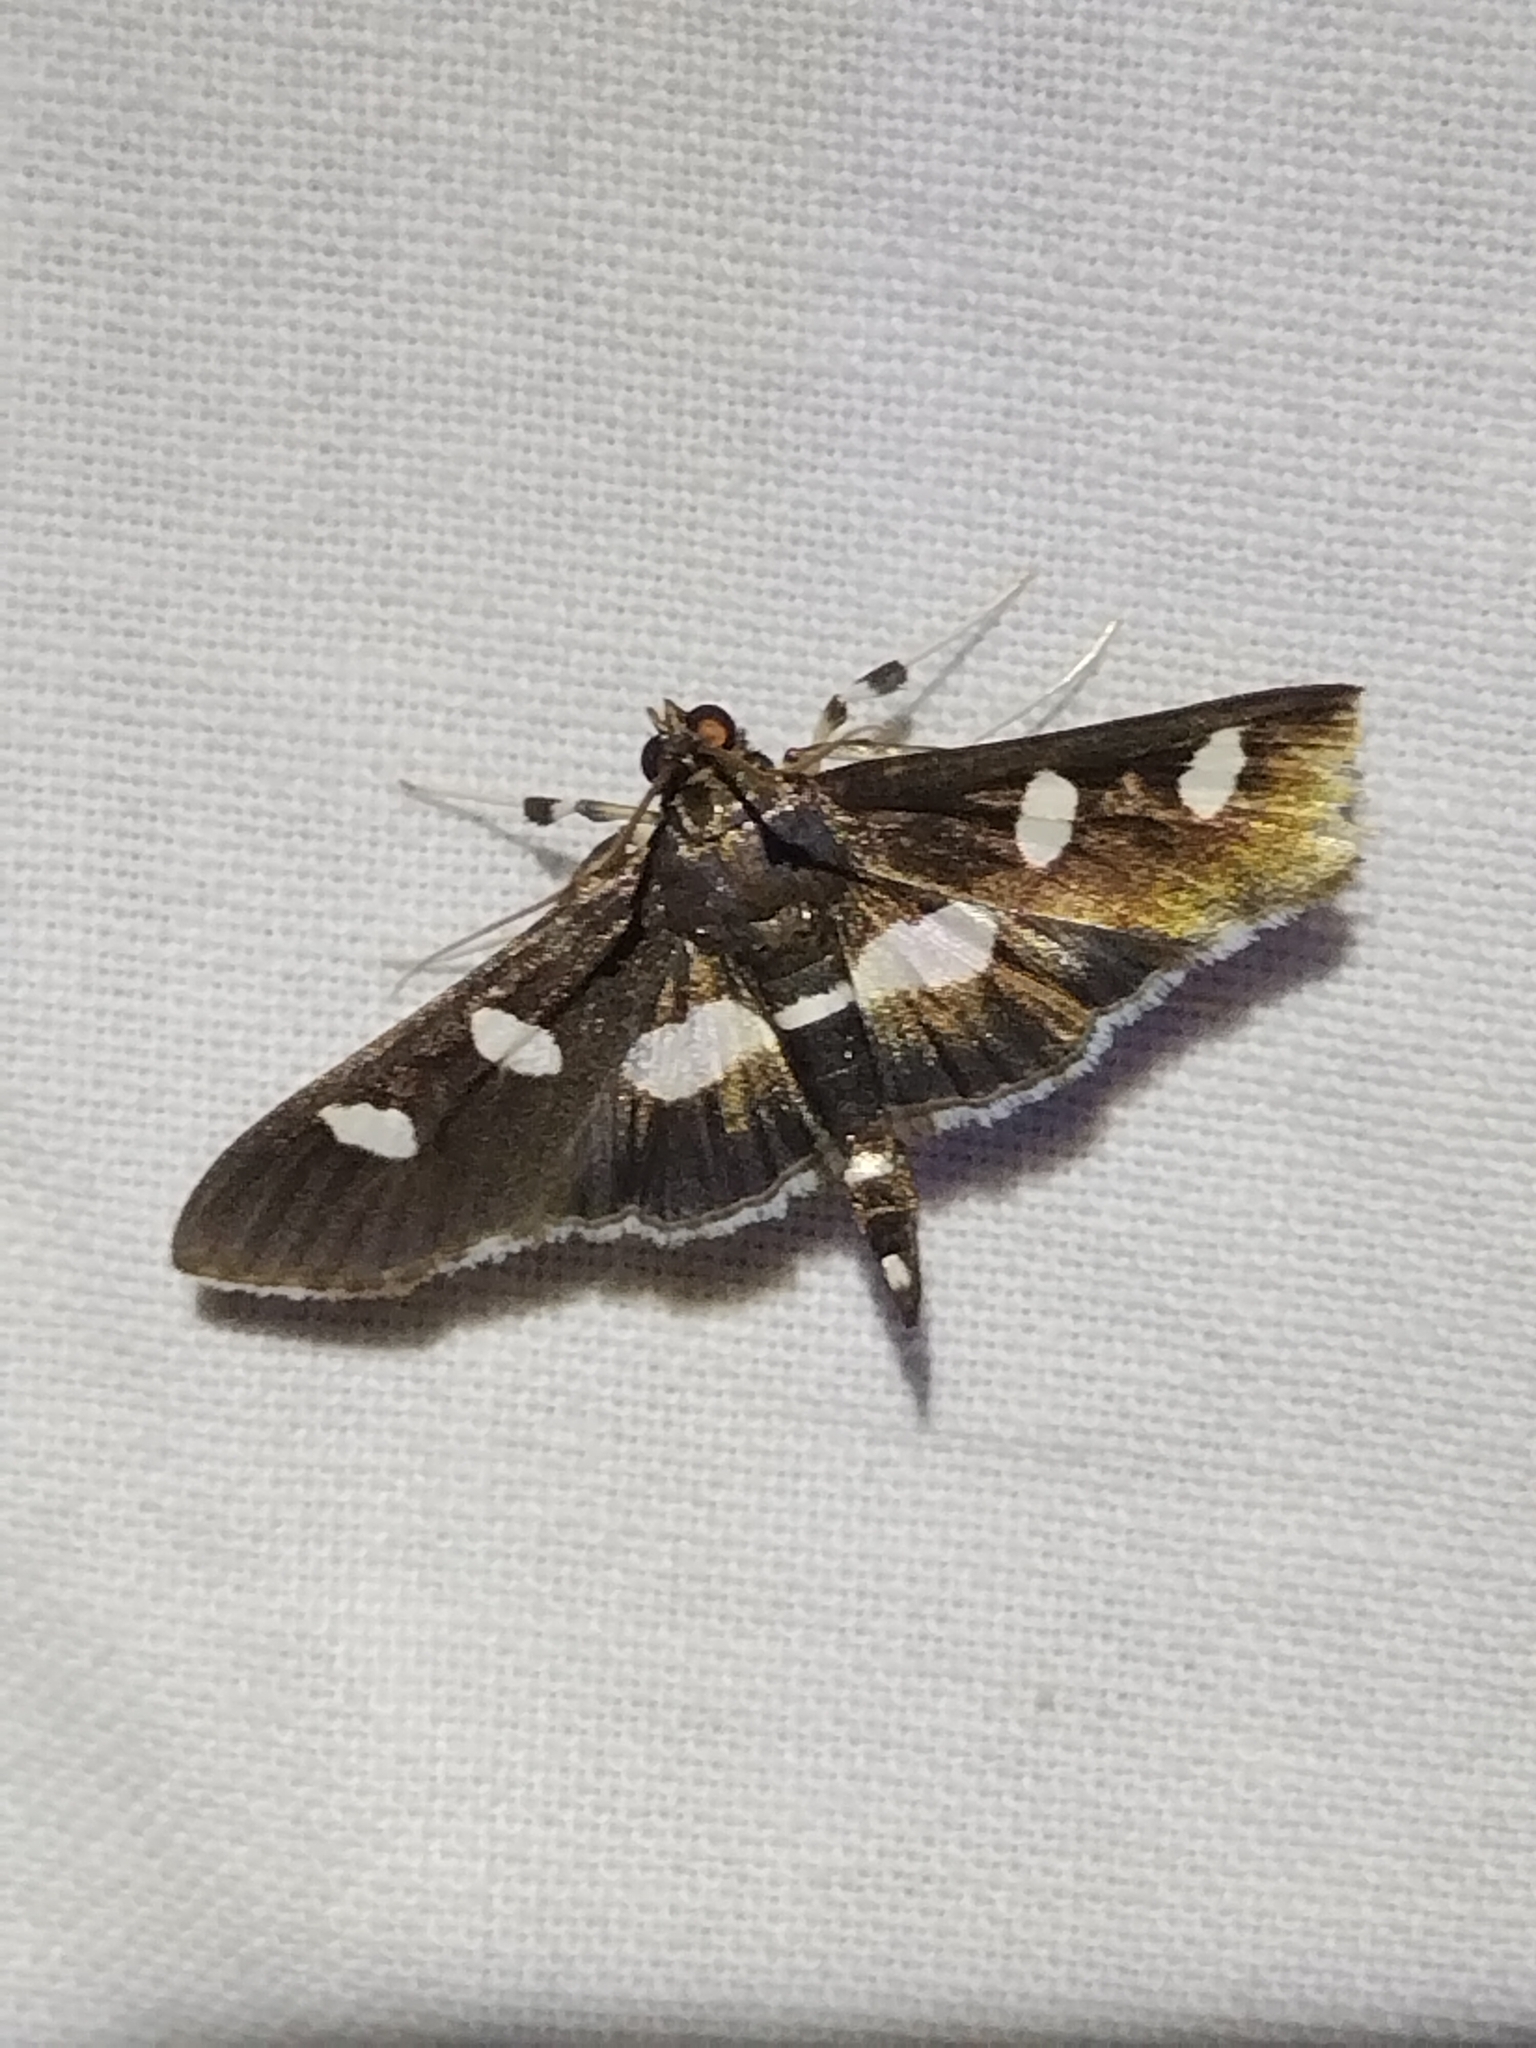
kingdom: Animalia
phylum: Arthropoda
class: Insecta
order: Lepidoptera
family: Crambidae
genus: Desmia
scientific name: Desmia
